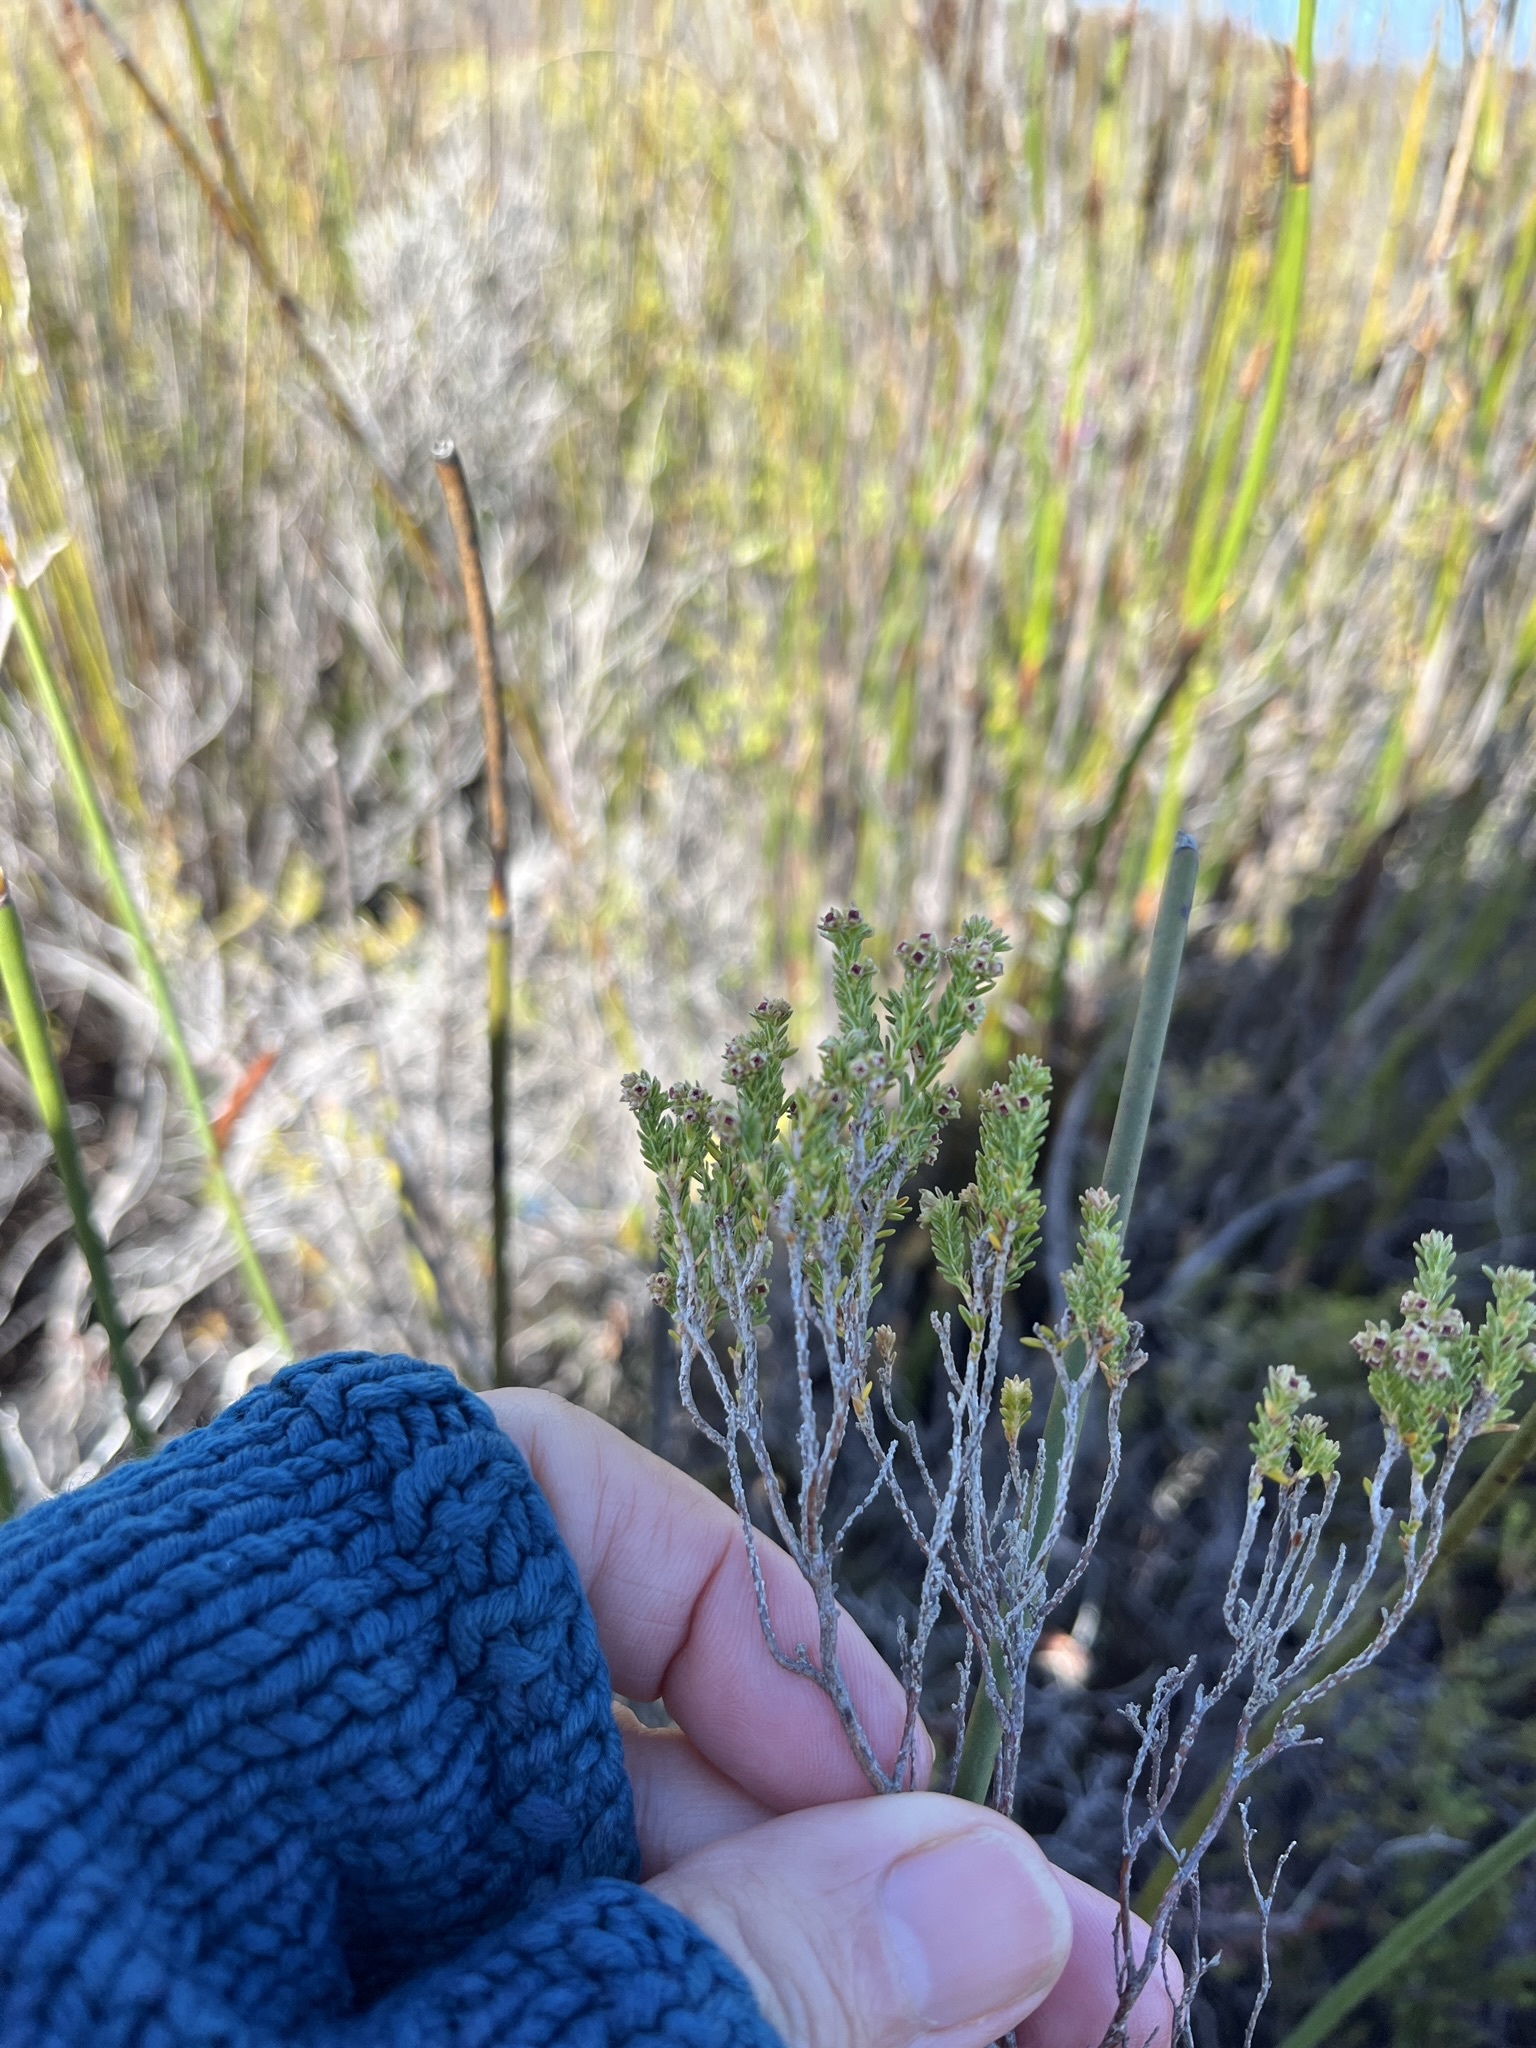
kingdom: Plantae
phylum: Tracheophyta
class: Magnoliopsida
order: Ericales
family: Ericaceae
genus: Erica
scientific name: Erica serrata
